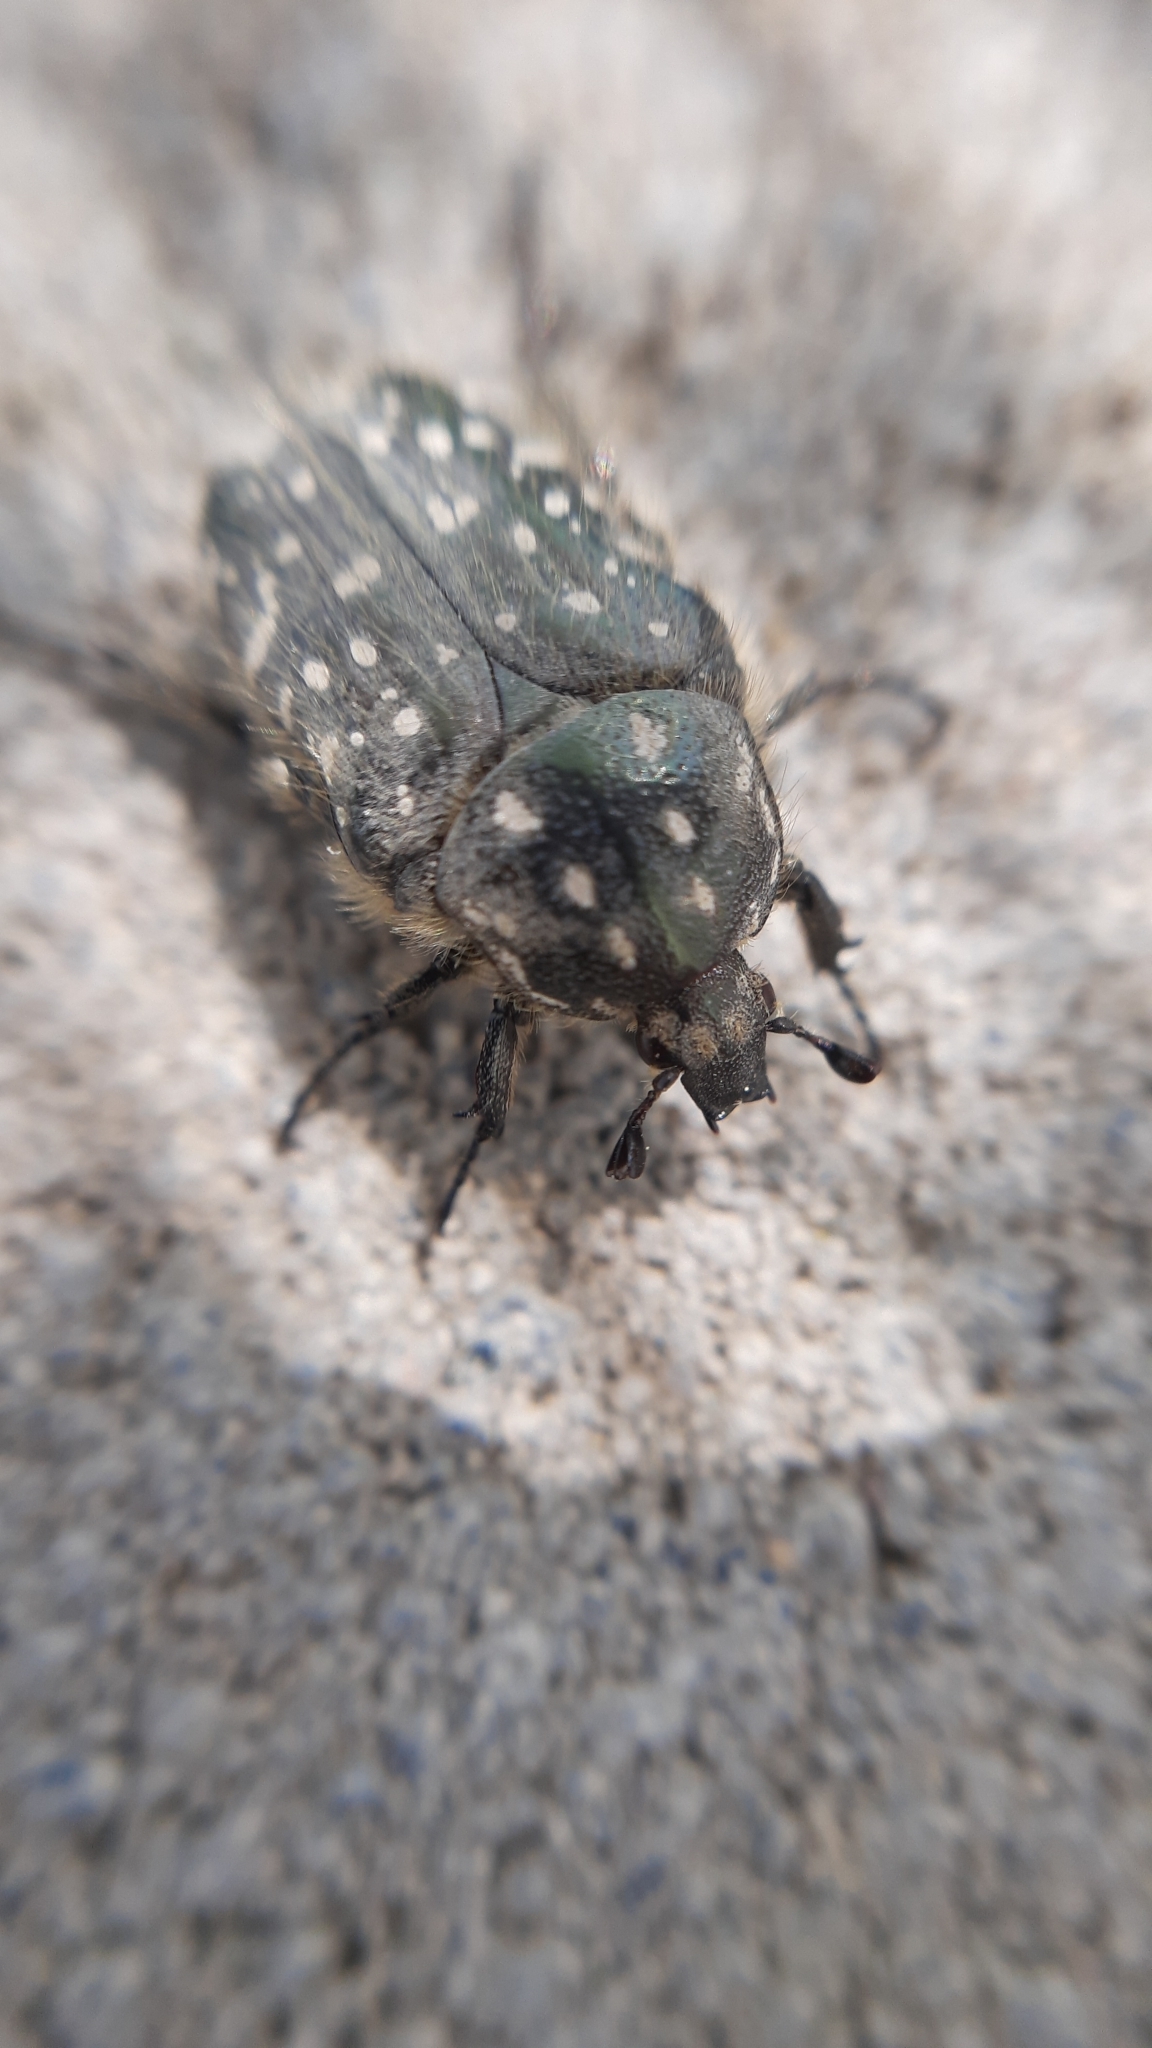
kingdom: Animalia
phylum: Arthropoda
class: Insecta
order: Coleoptera
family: Scarabaeidae
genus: Oxythyrea
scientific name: Oxythyrea funesta
